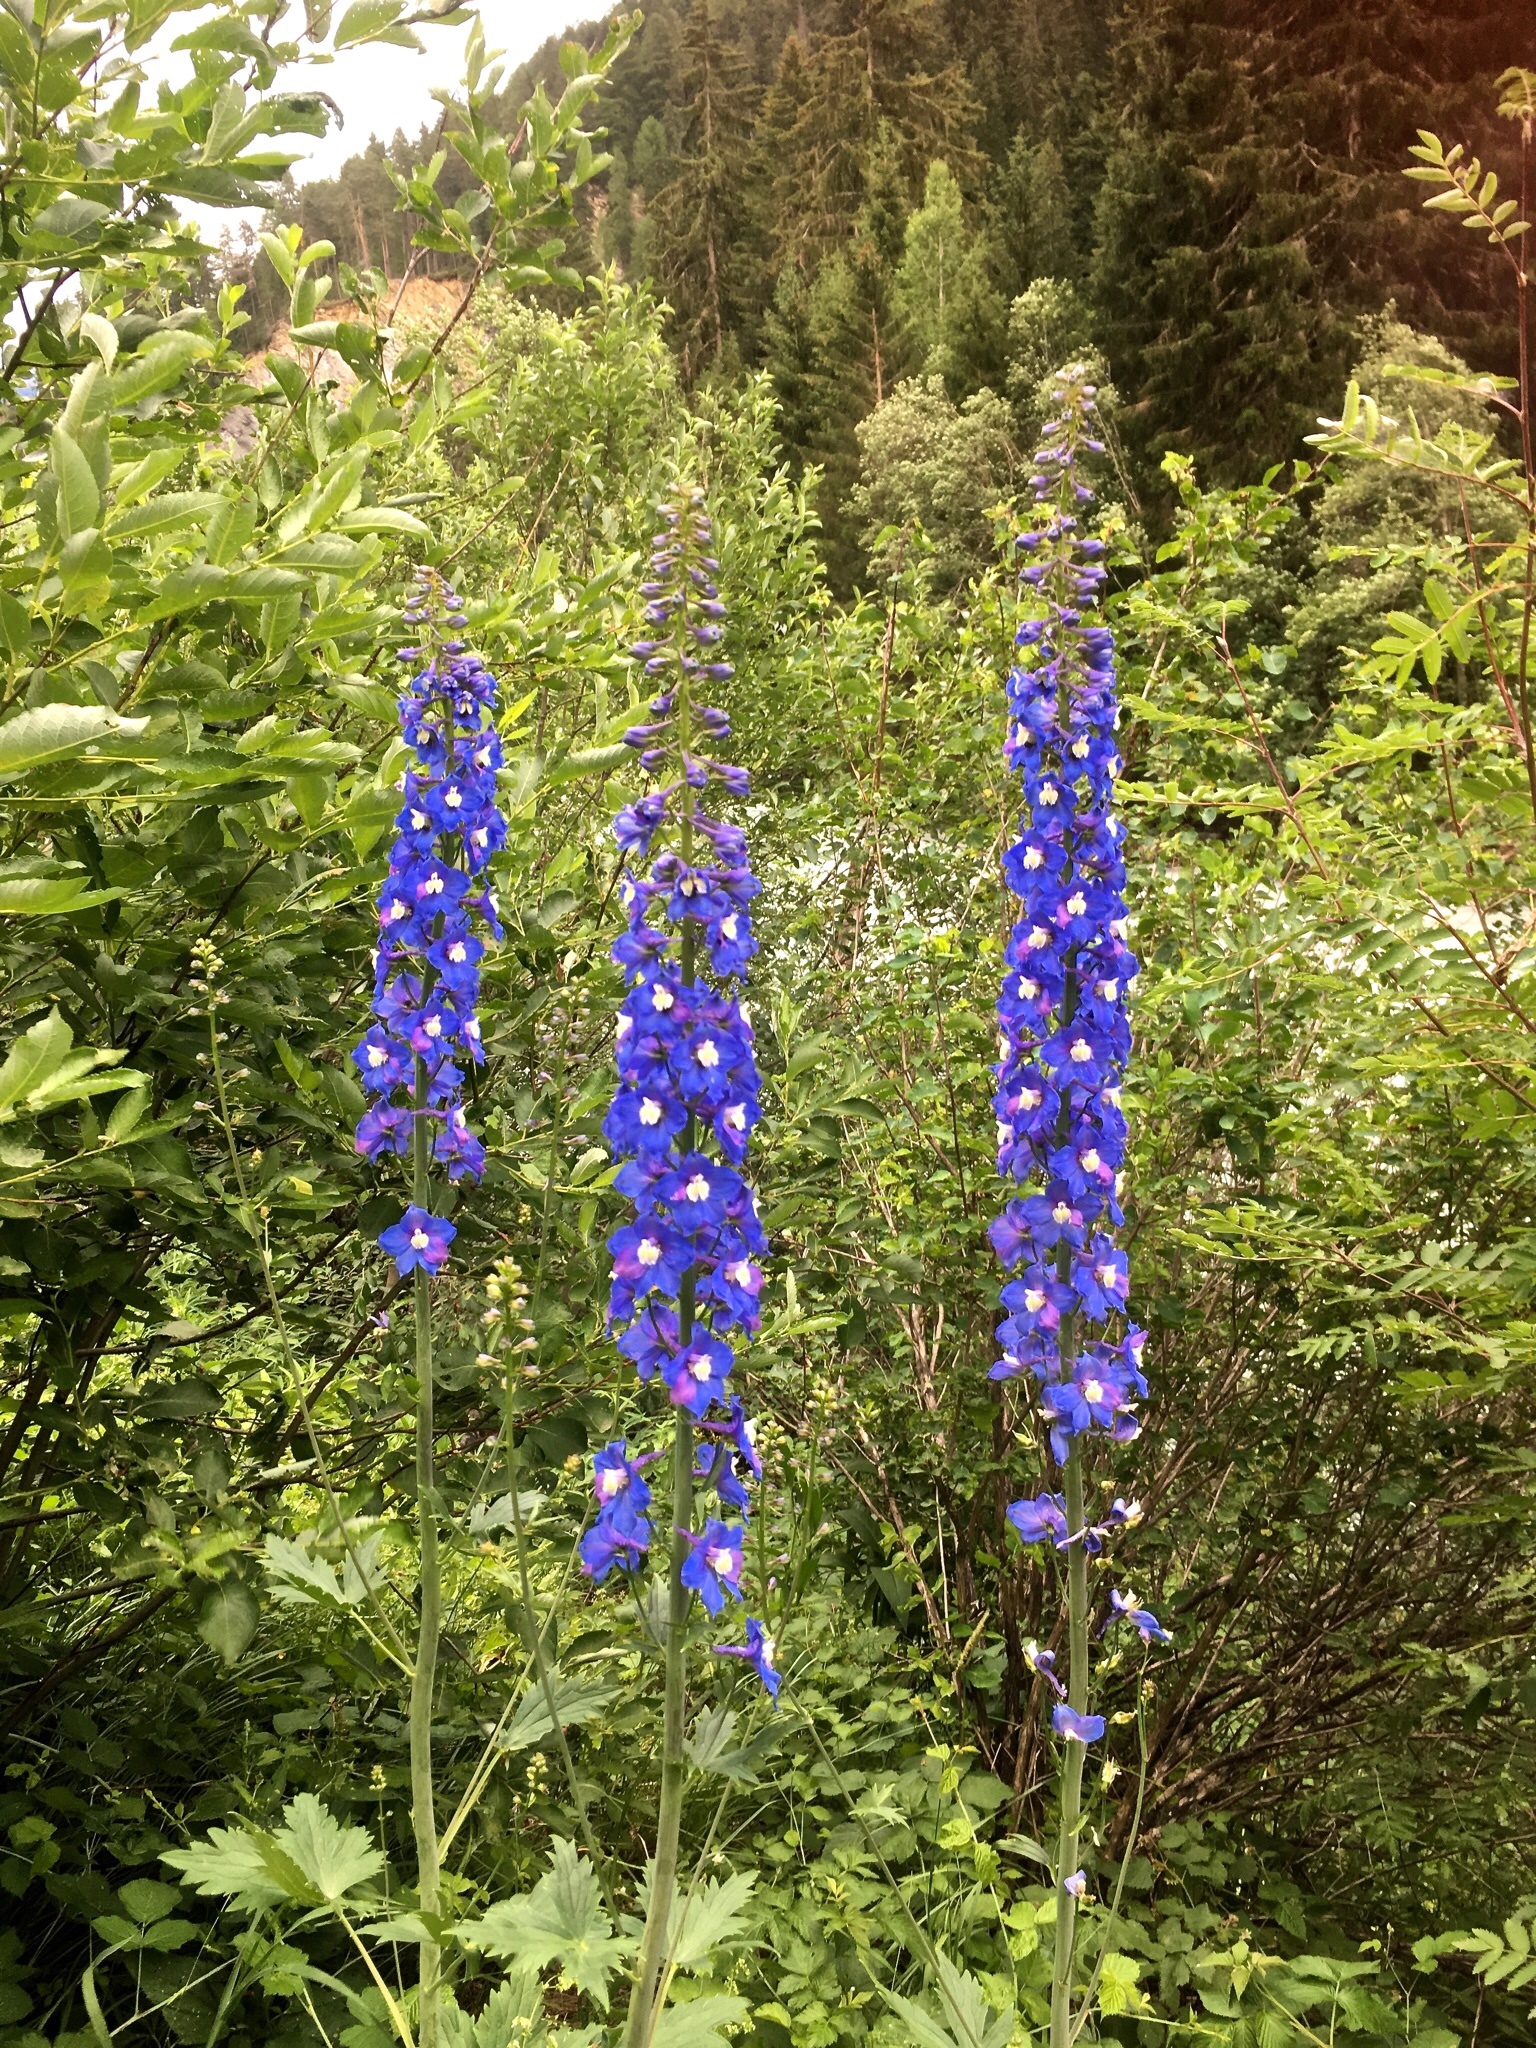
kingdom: Plantae
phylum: Tracheophyta
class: Magnoliopsida
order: Ranunculales
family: Ranunculaceae
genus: Delphinium
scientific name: Delphinium elatum
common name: Candle larkspur
